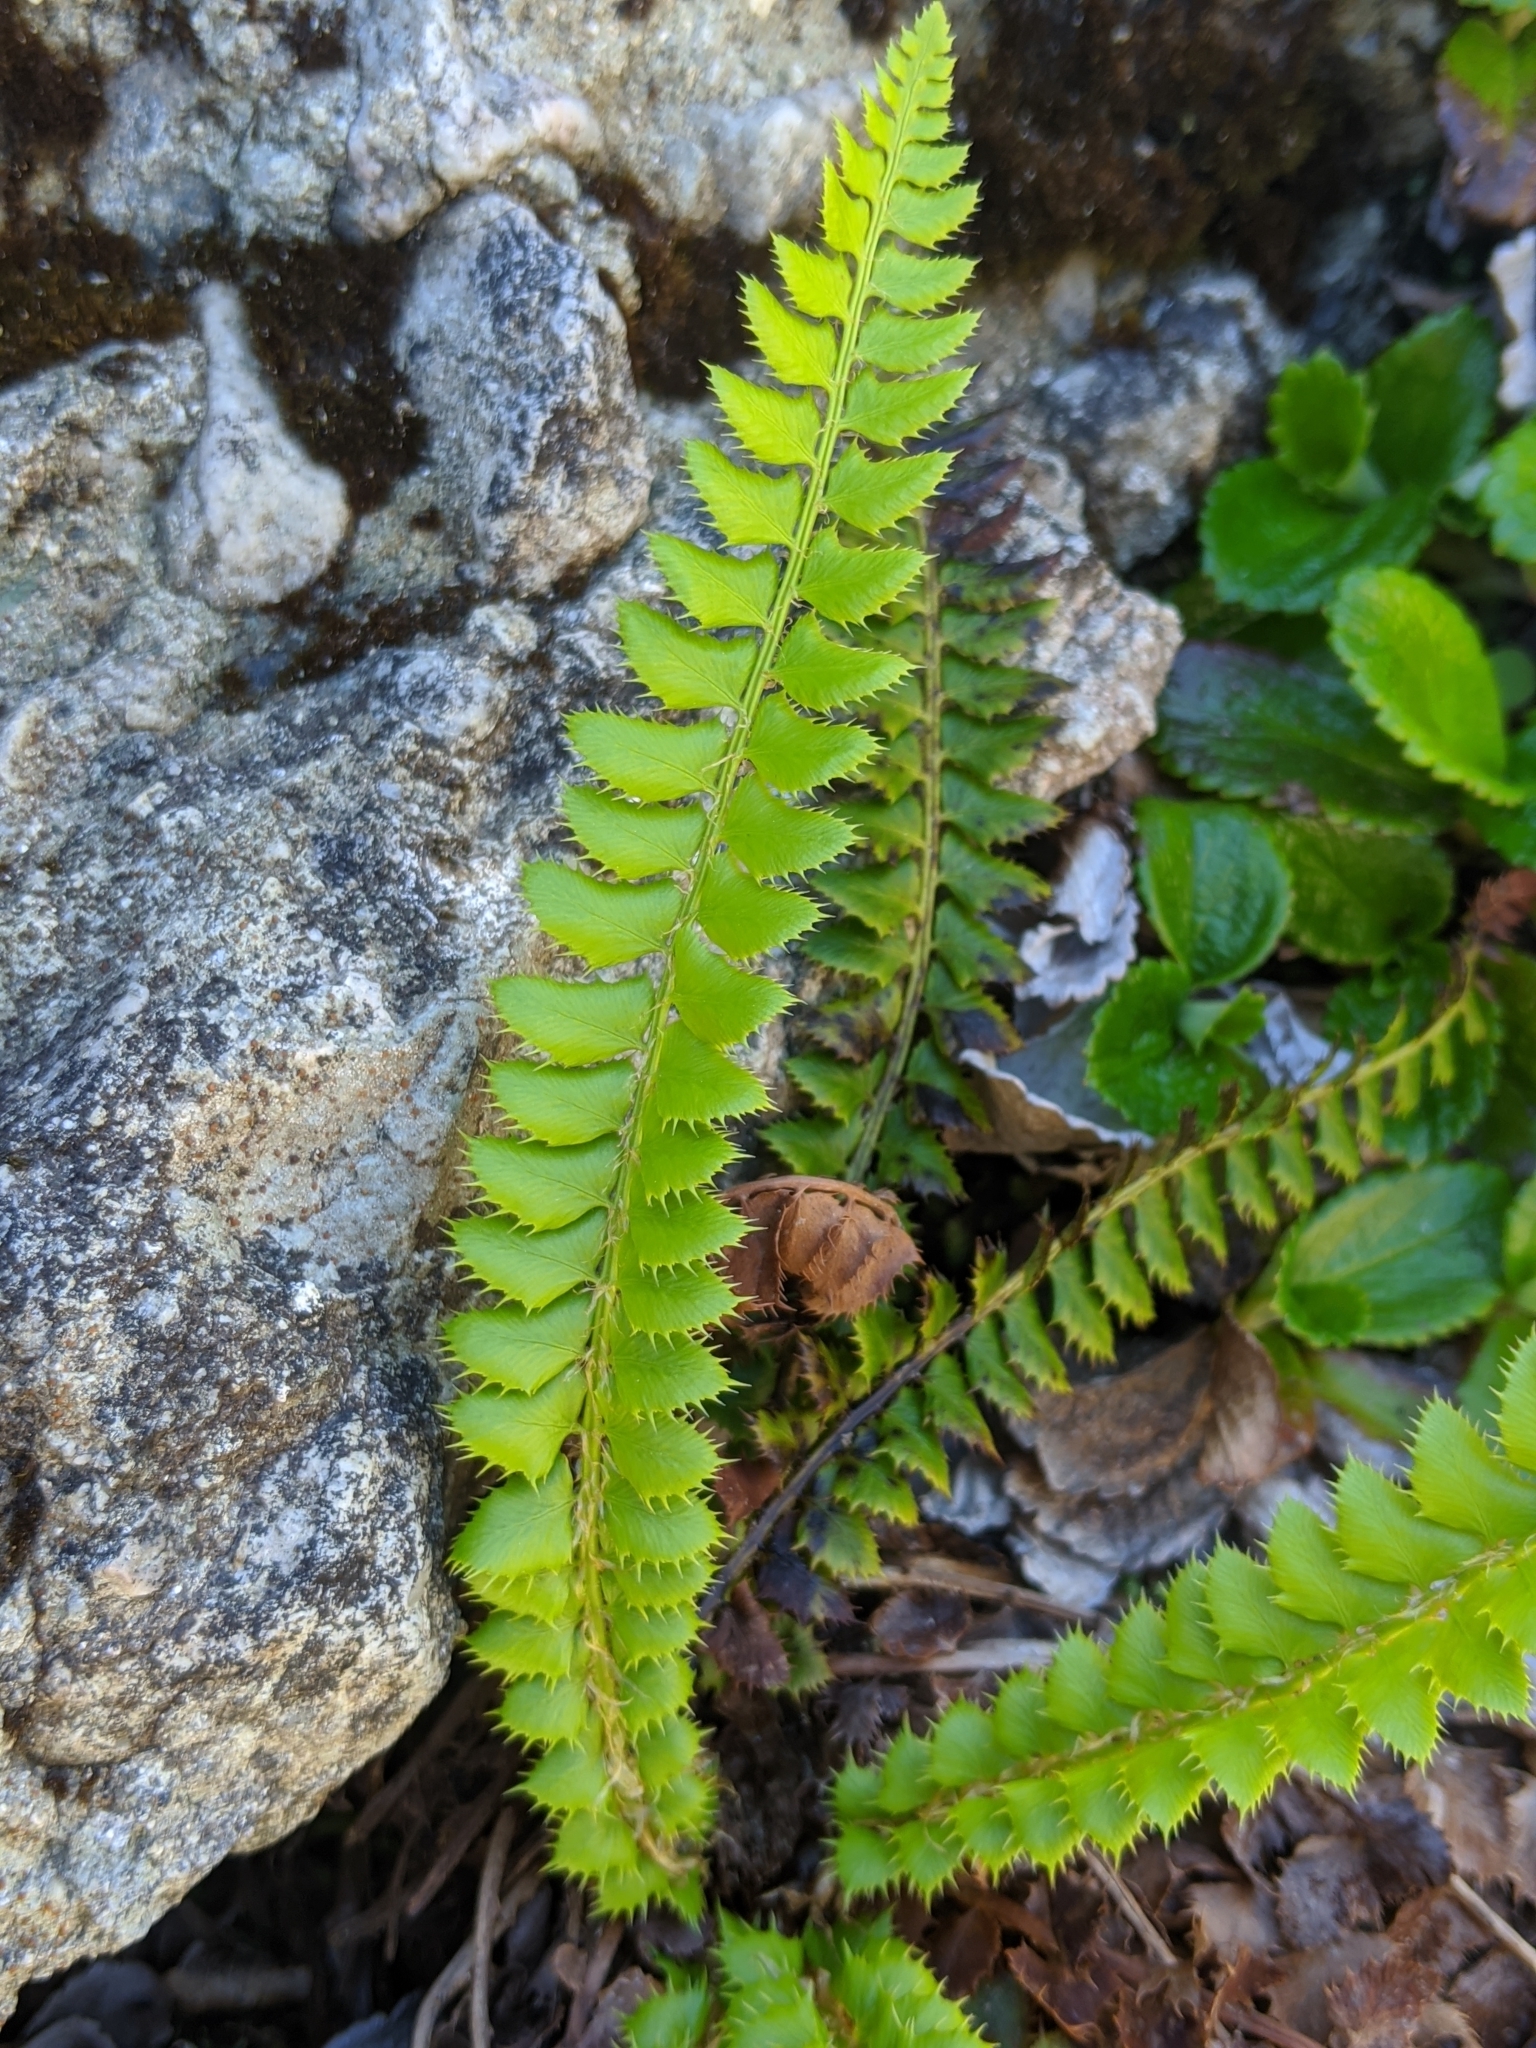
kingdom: Plantae
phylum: Tracheophyta
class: Polypodiopsida
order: Polypodiales
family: Dryopteridaceae
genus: Polystichum
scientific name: Polystichum lonchitis
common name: Holly fern
